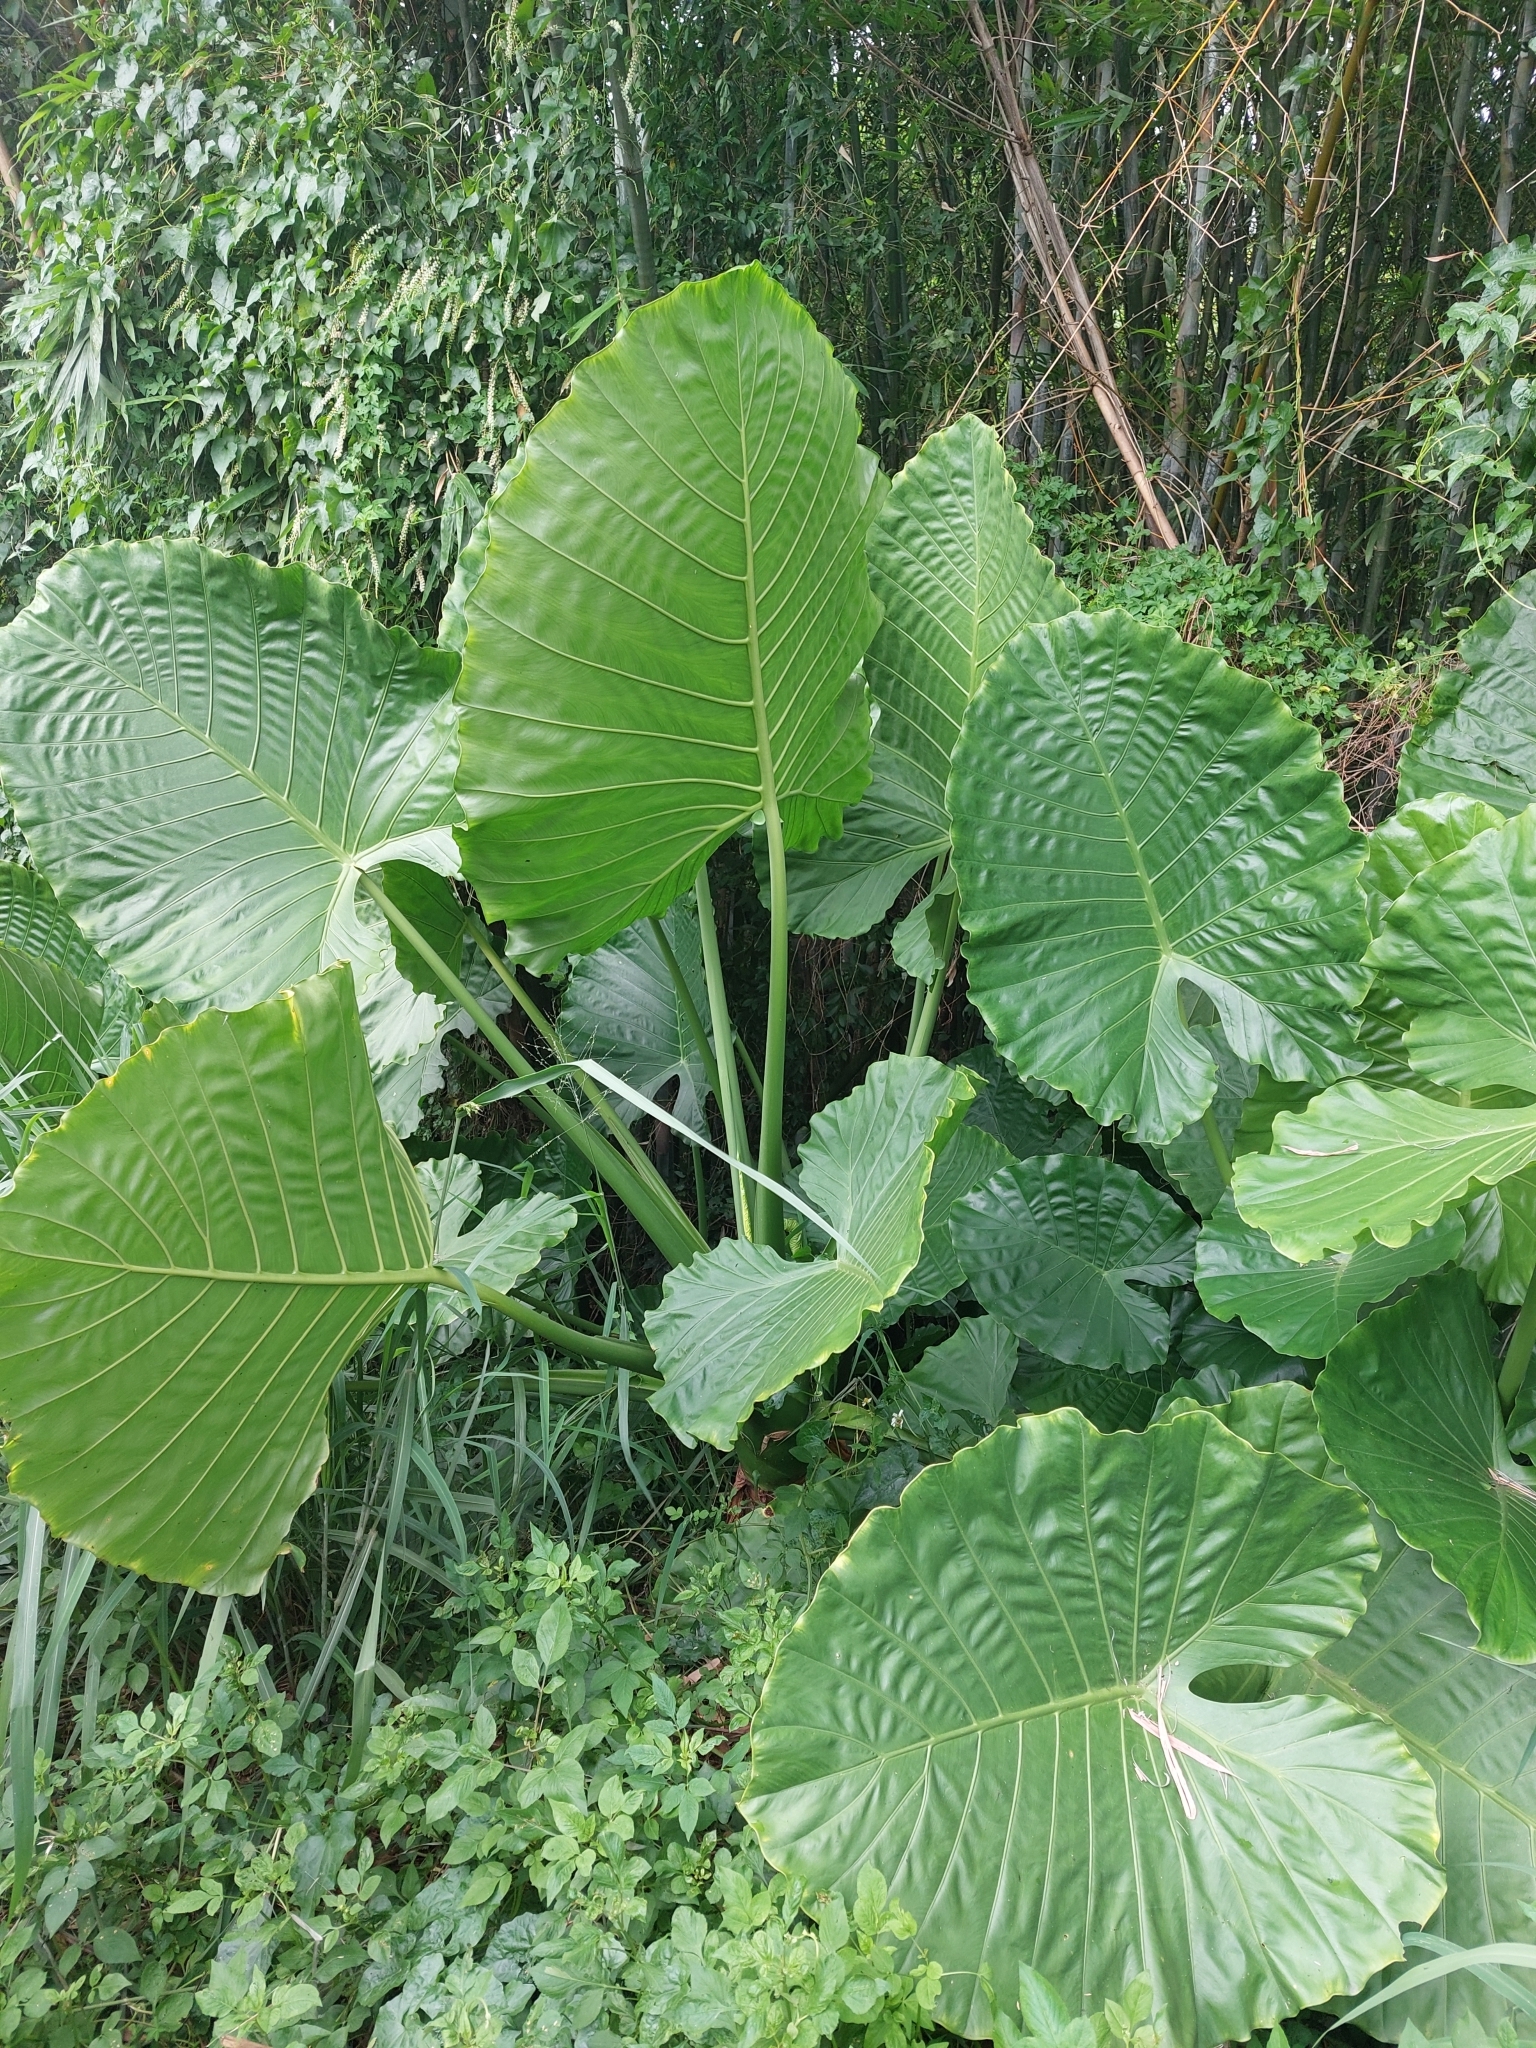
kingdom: Plantae
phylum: Tracheophyta
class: Liliopsida
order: Alismatales
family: Araceae
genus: Alocasia
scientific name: Alocasia odora
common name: Asian taro
